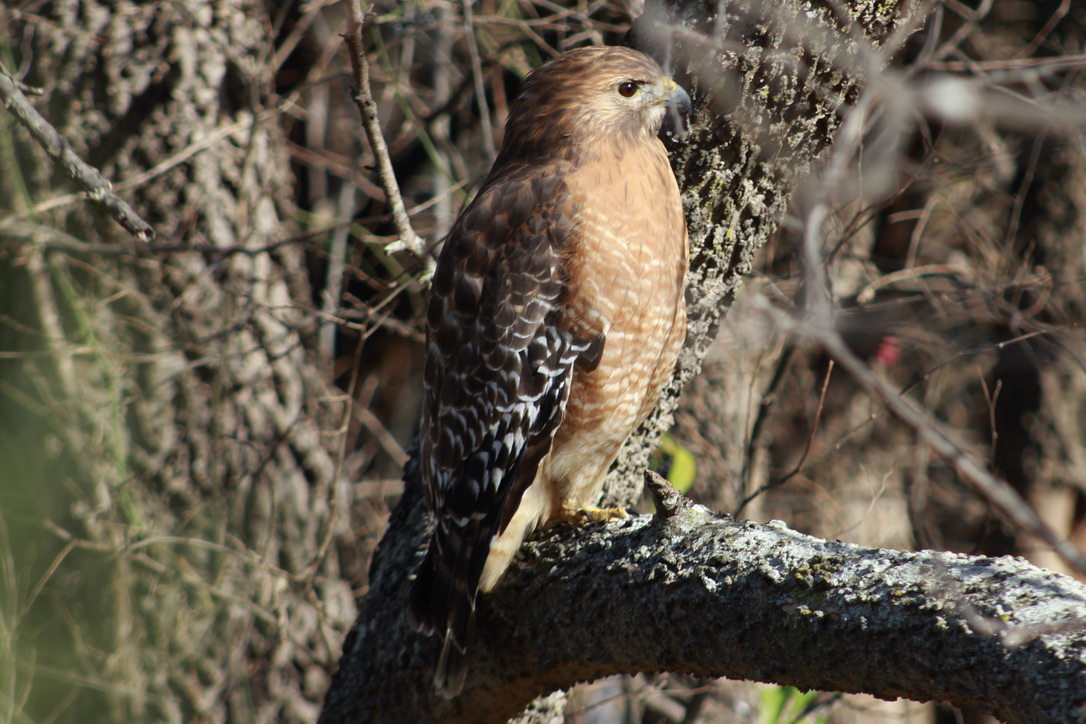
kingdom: Animalia
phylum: Chordata
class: Aves
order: Accipitriformes
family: Accipitridae
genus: Buteo
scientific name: Buteo lineatus
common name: Red-shouldered hawk
